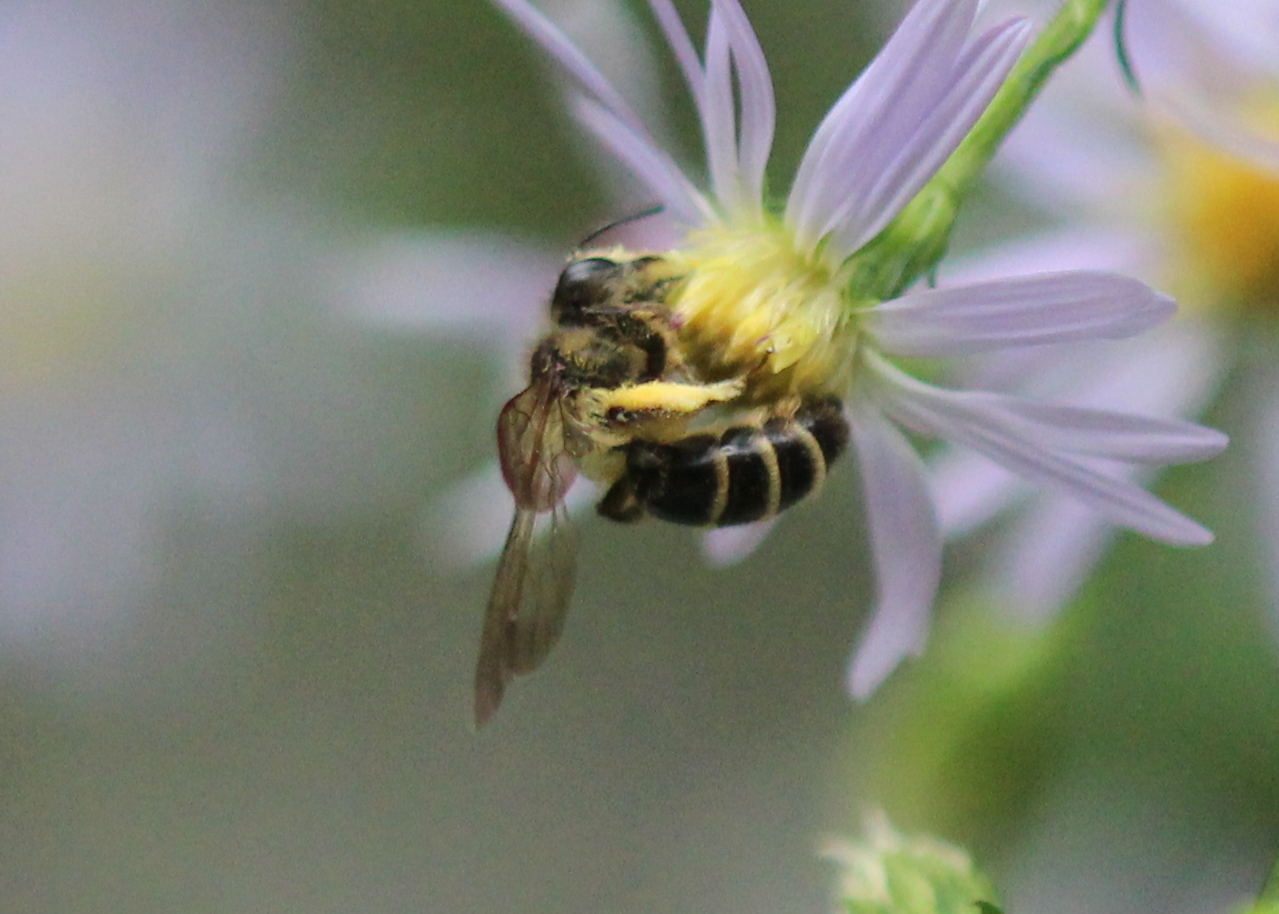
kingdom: Animalia
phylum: Arthropoda
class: Insecta
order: Hymenoptera
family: Andrenidae
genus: Andrena
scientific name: Andrena nubecula
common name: Cloudy-winged mining bee
